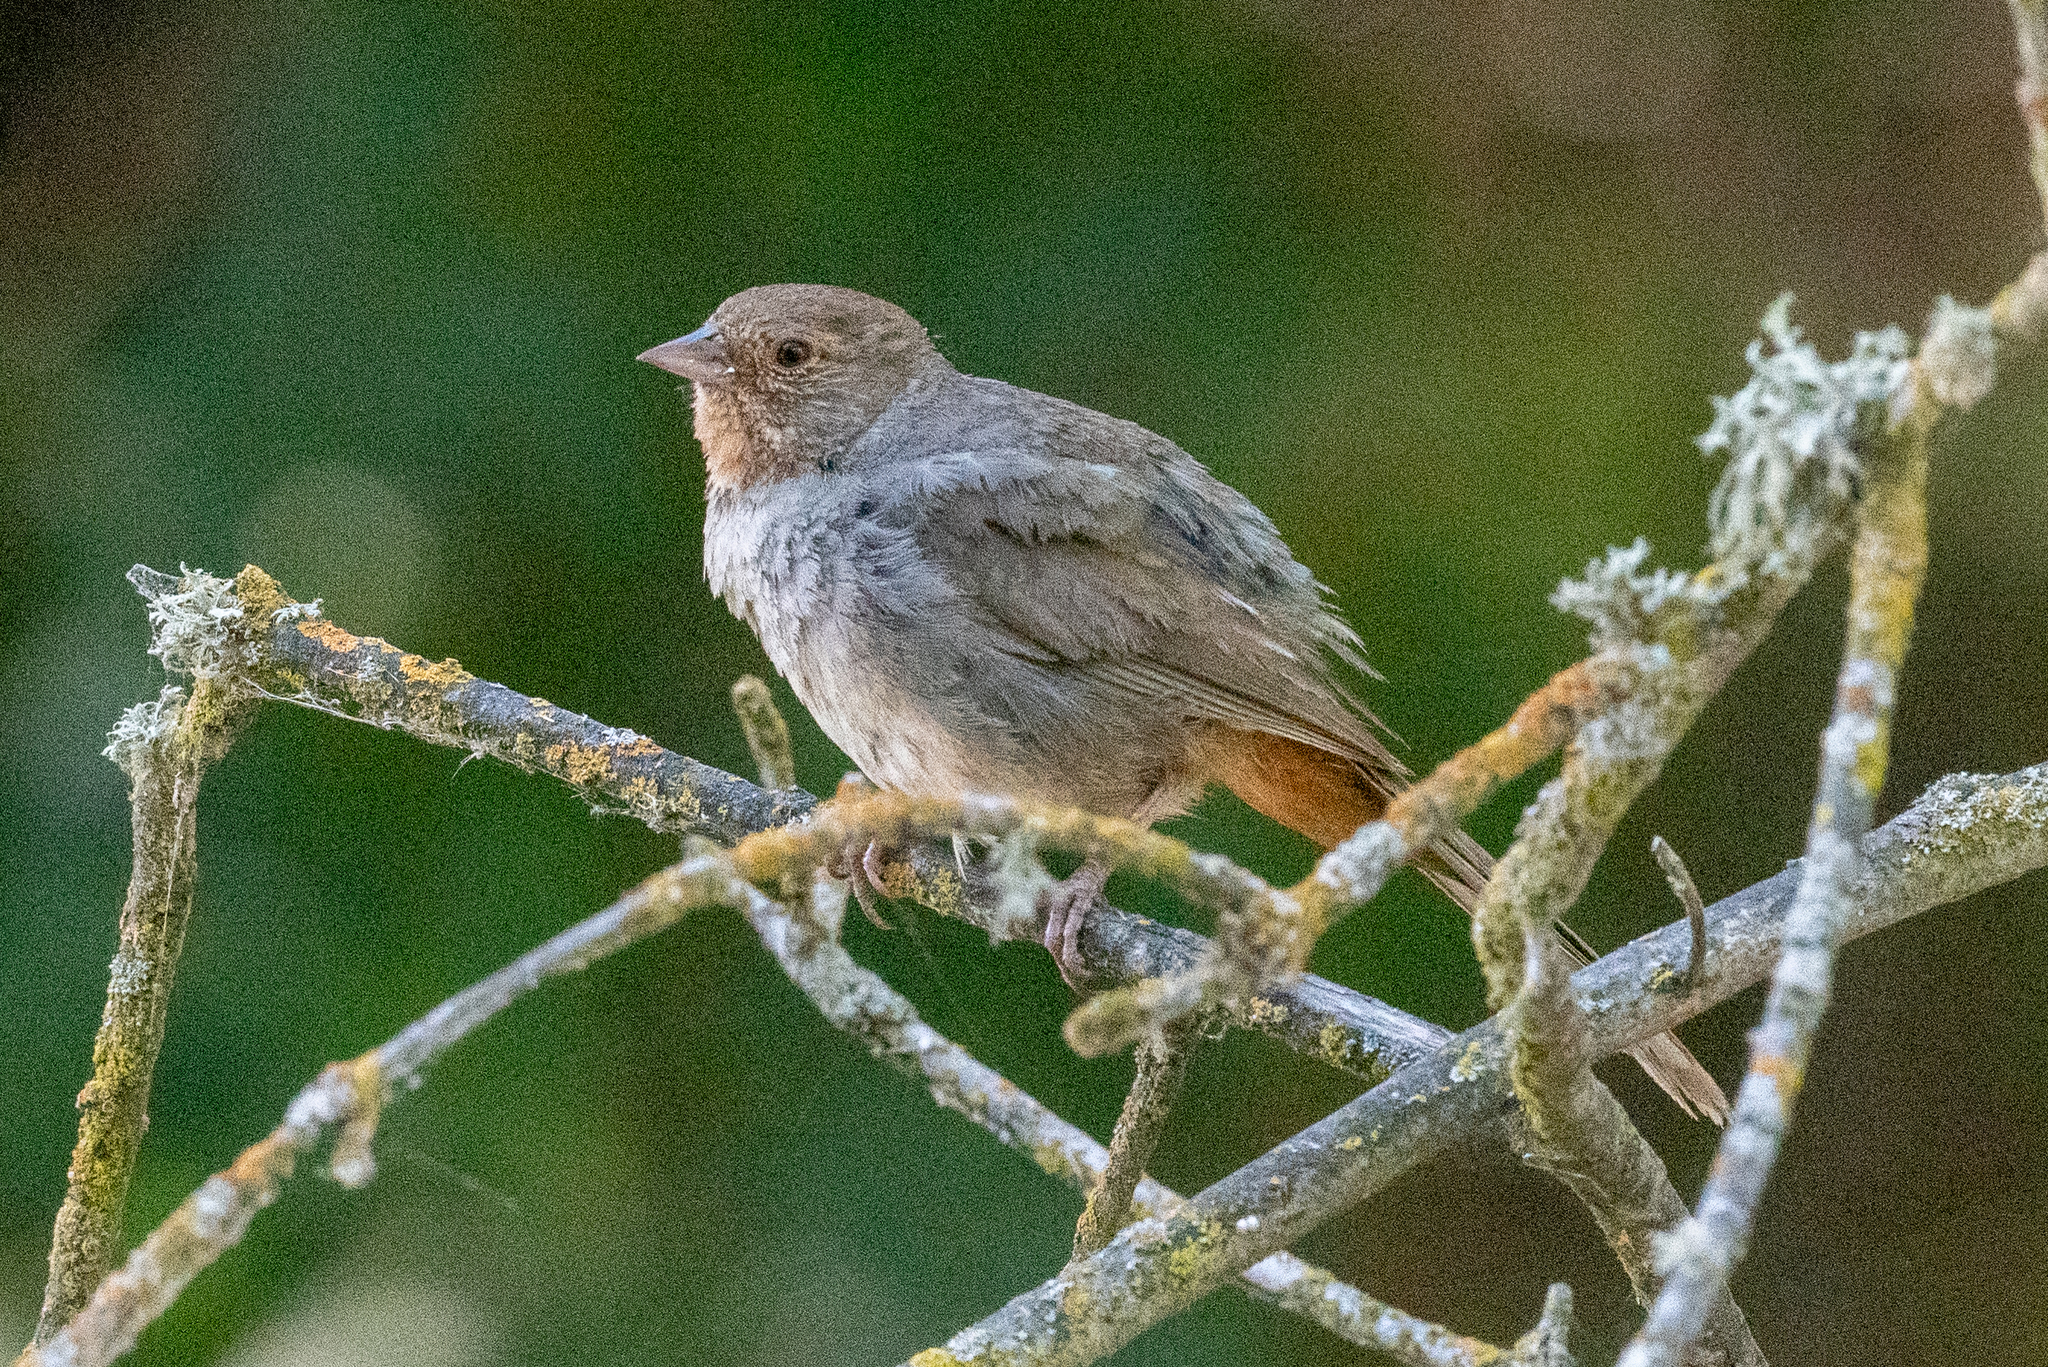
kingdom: Animalia
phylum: Chordata
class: Aves
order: Passeriformes
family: Passerellidae
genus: Melozone
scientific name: Melozone crissalis
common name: California towhee
